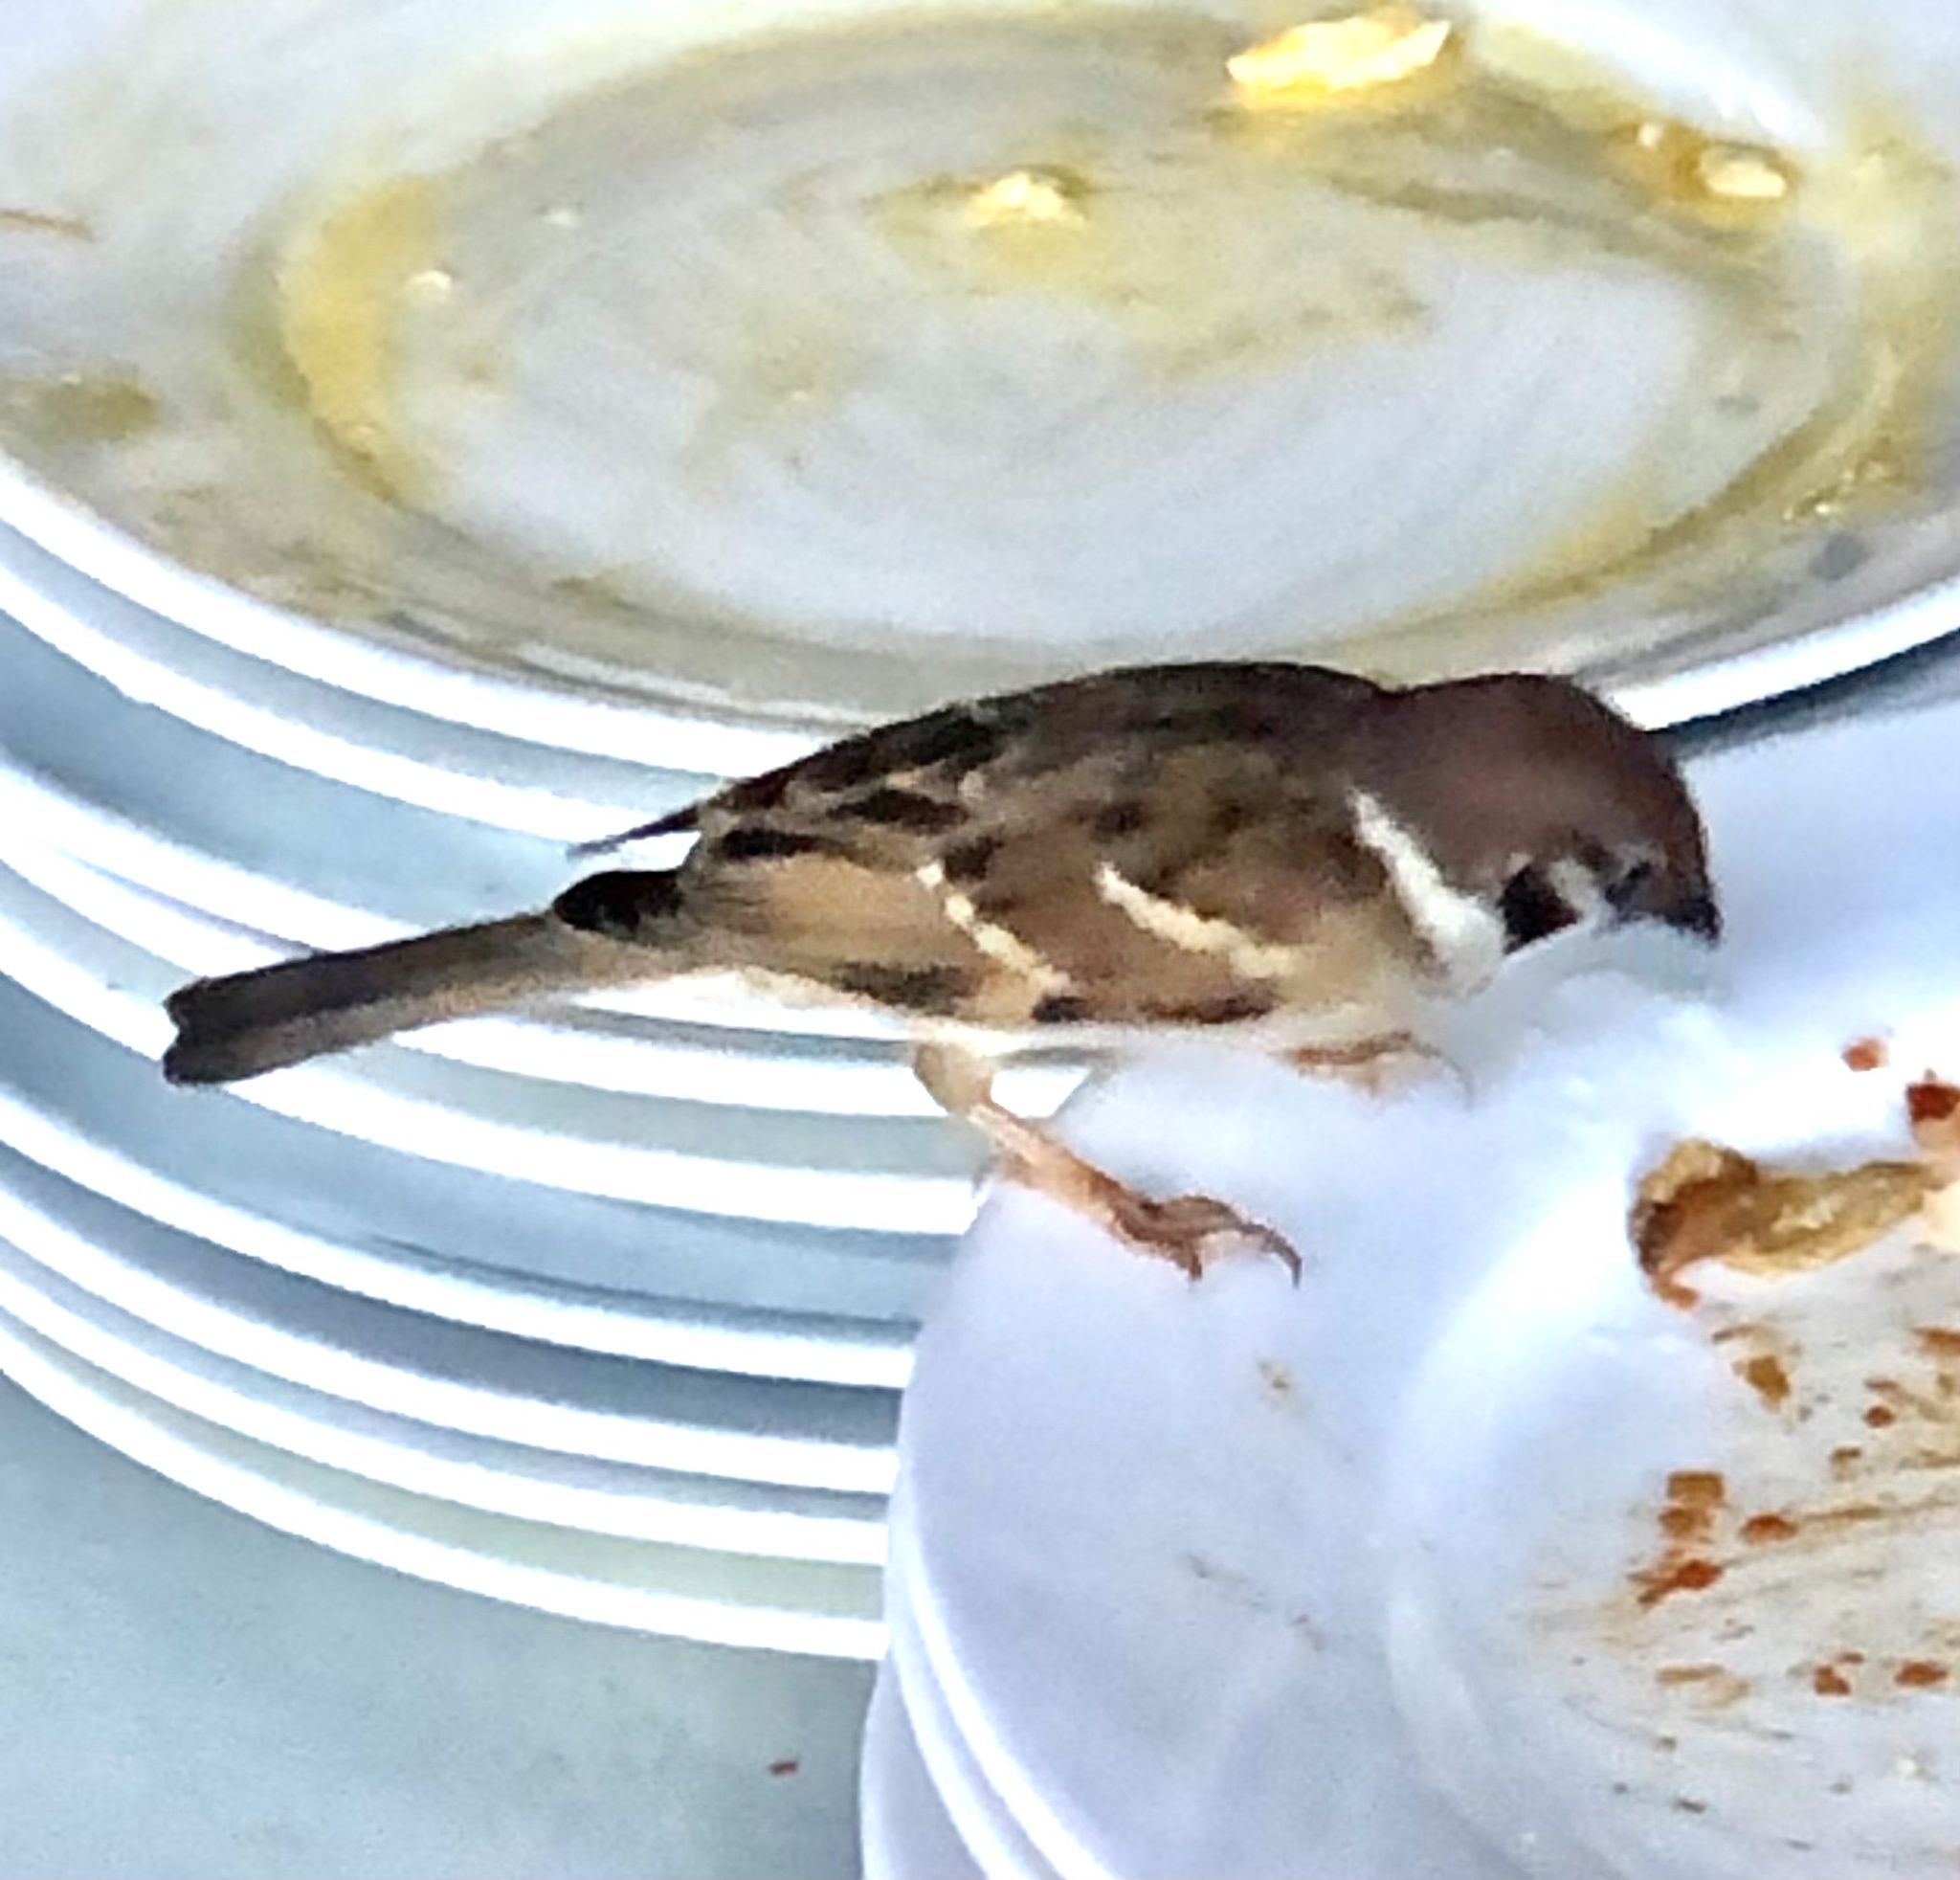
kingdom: Animalia
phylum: Chordata
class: Aves
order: Passeriformes
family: Passeridae
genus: Passer
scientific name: Passer montanus
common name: Eurasian tree sparrow
